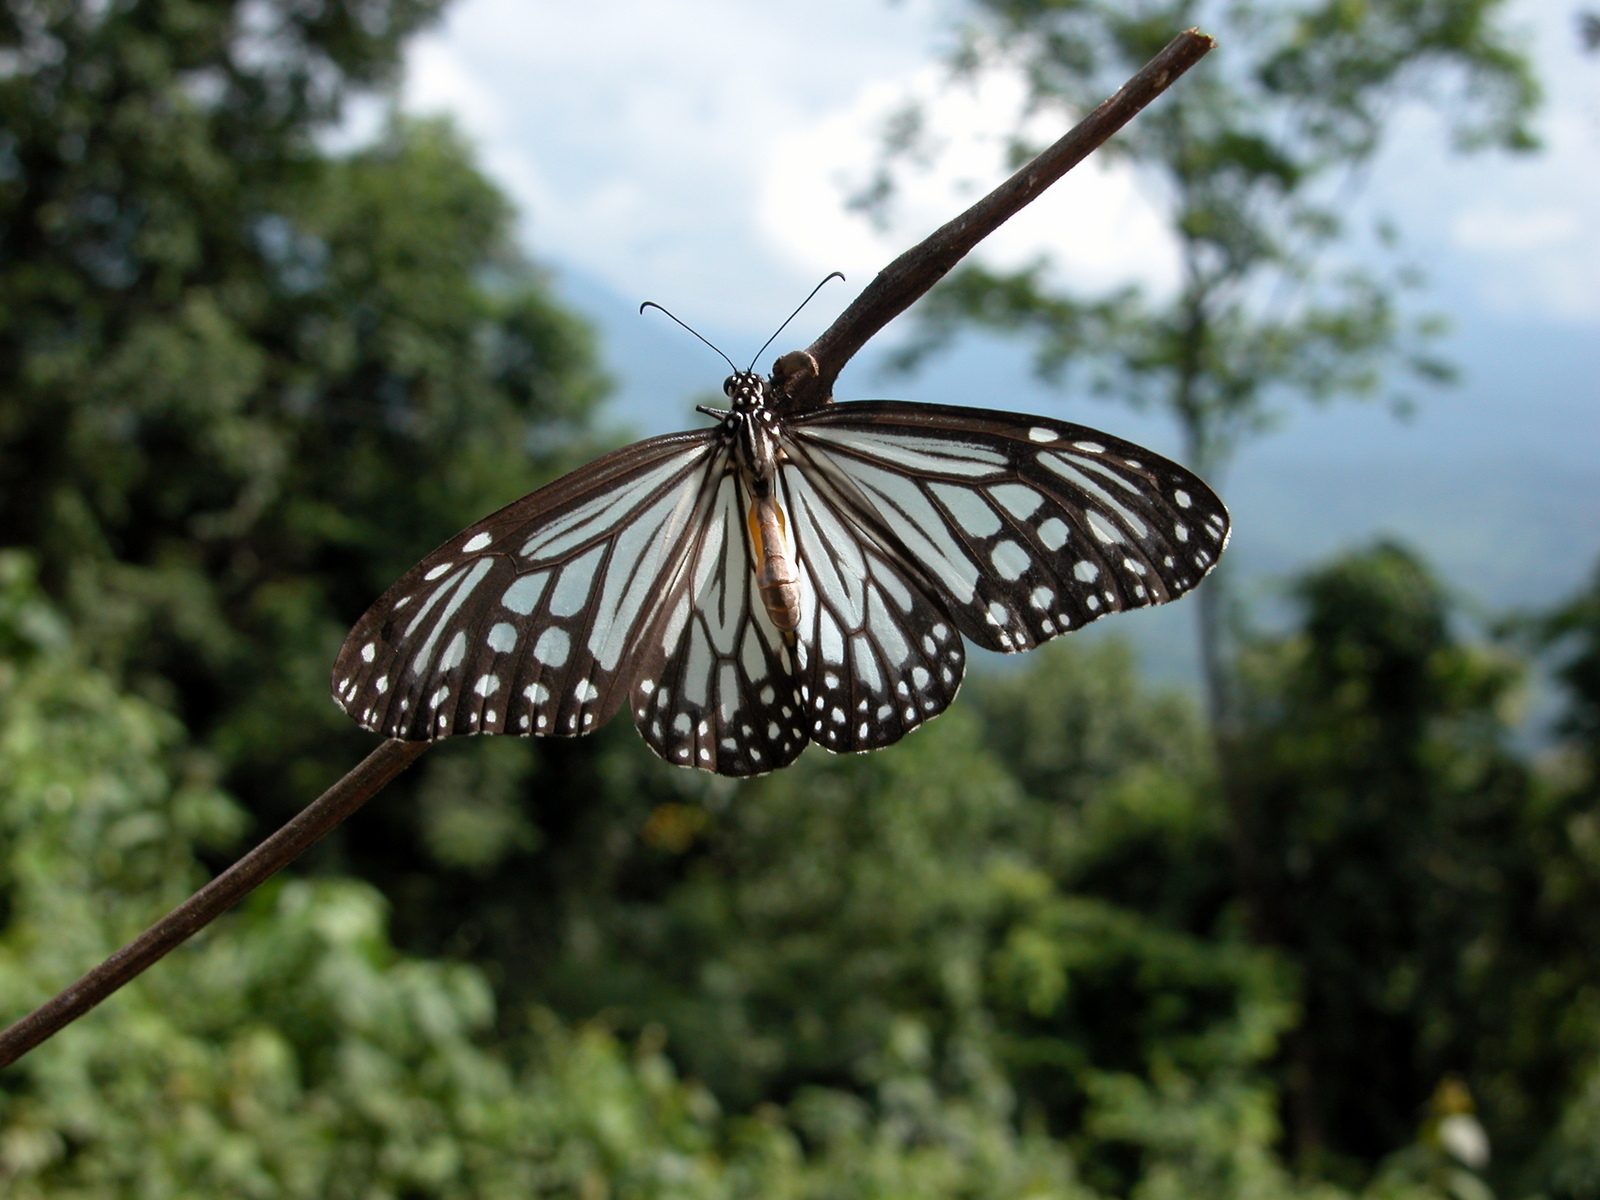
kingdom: Animalia
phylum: Arthropoda
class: Insecta
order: Lepidoptera
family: Nymphalidae
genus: Parantica
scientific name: Parantica aglea
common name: Glassy tiger
